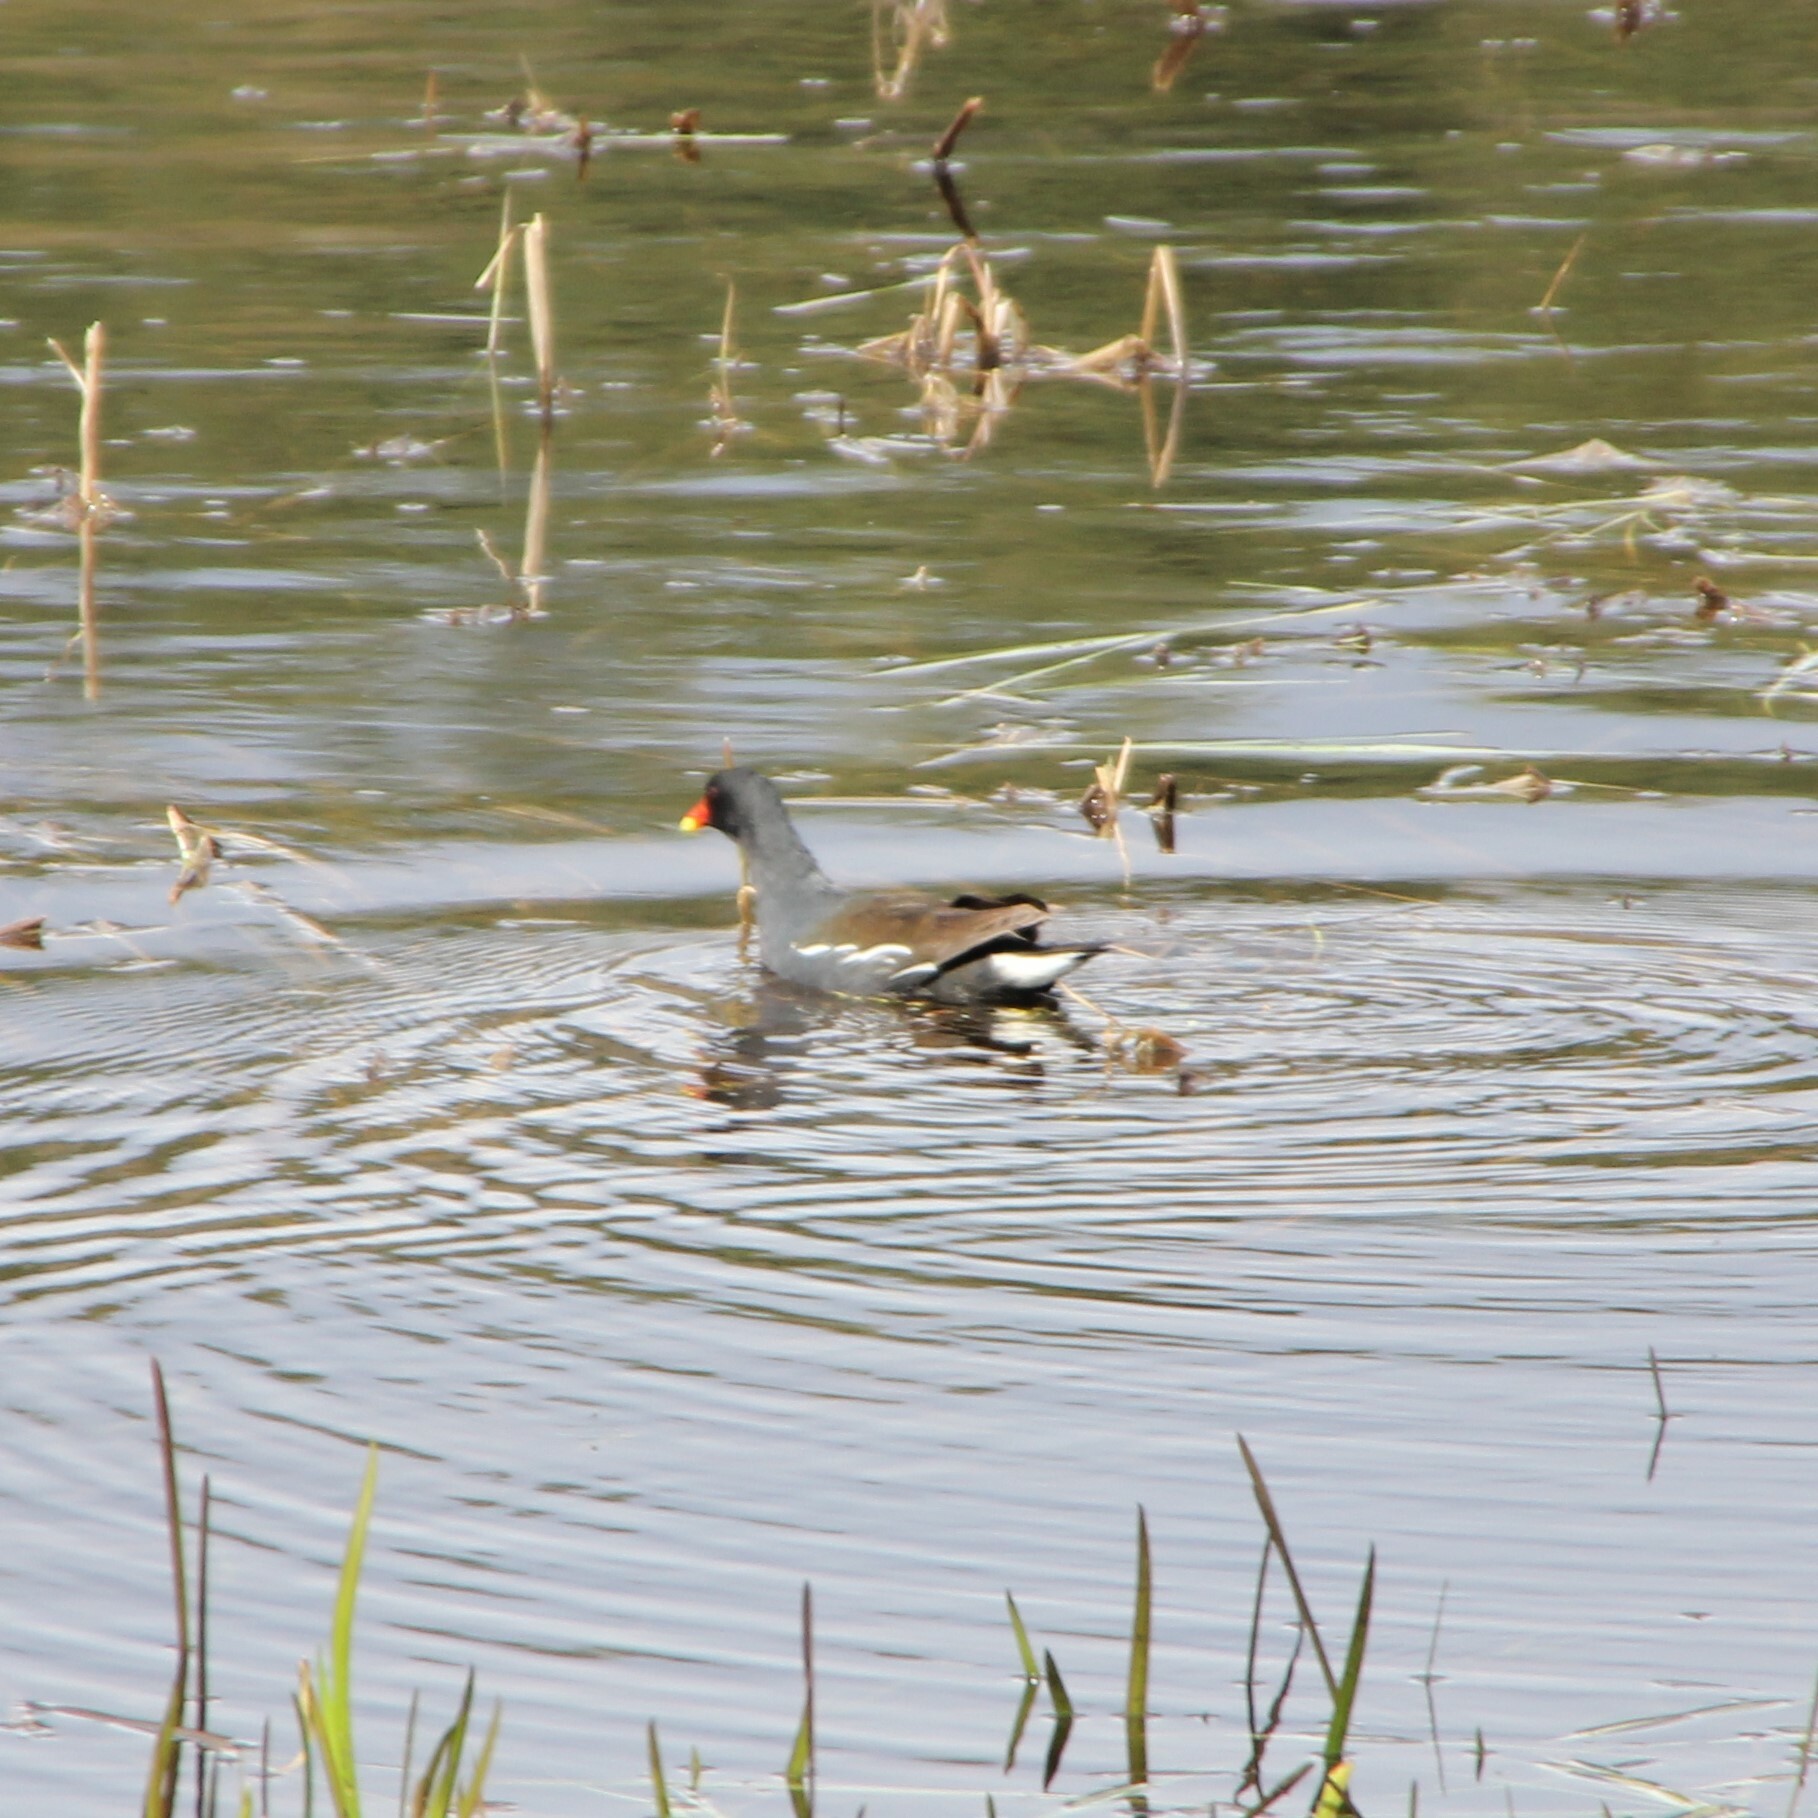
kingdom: Animalia
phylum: Chordata
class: Aves
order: Gruiformes
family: Rallidae
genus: Gallinula
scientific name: Gallinula chloropus
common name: Common moorhen
